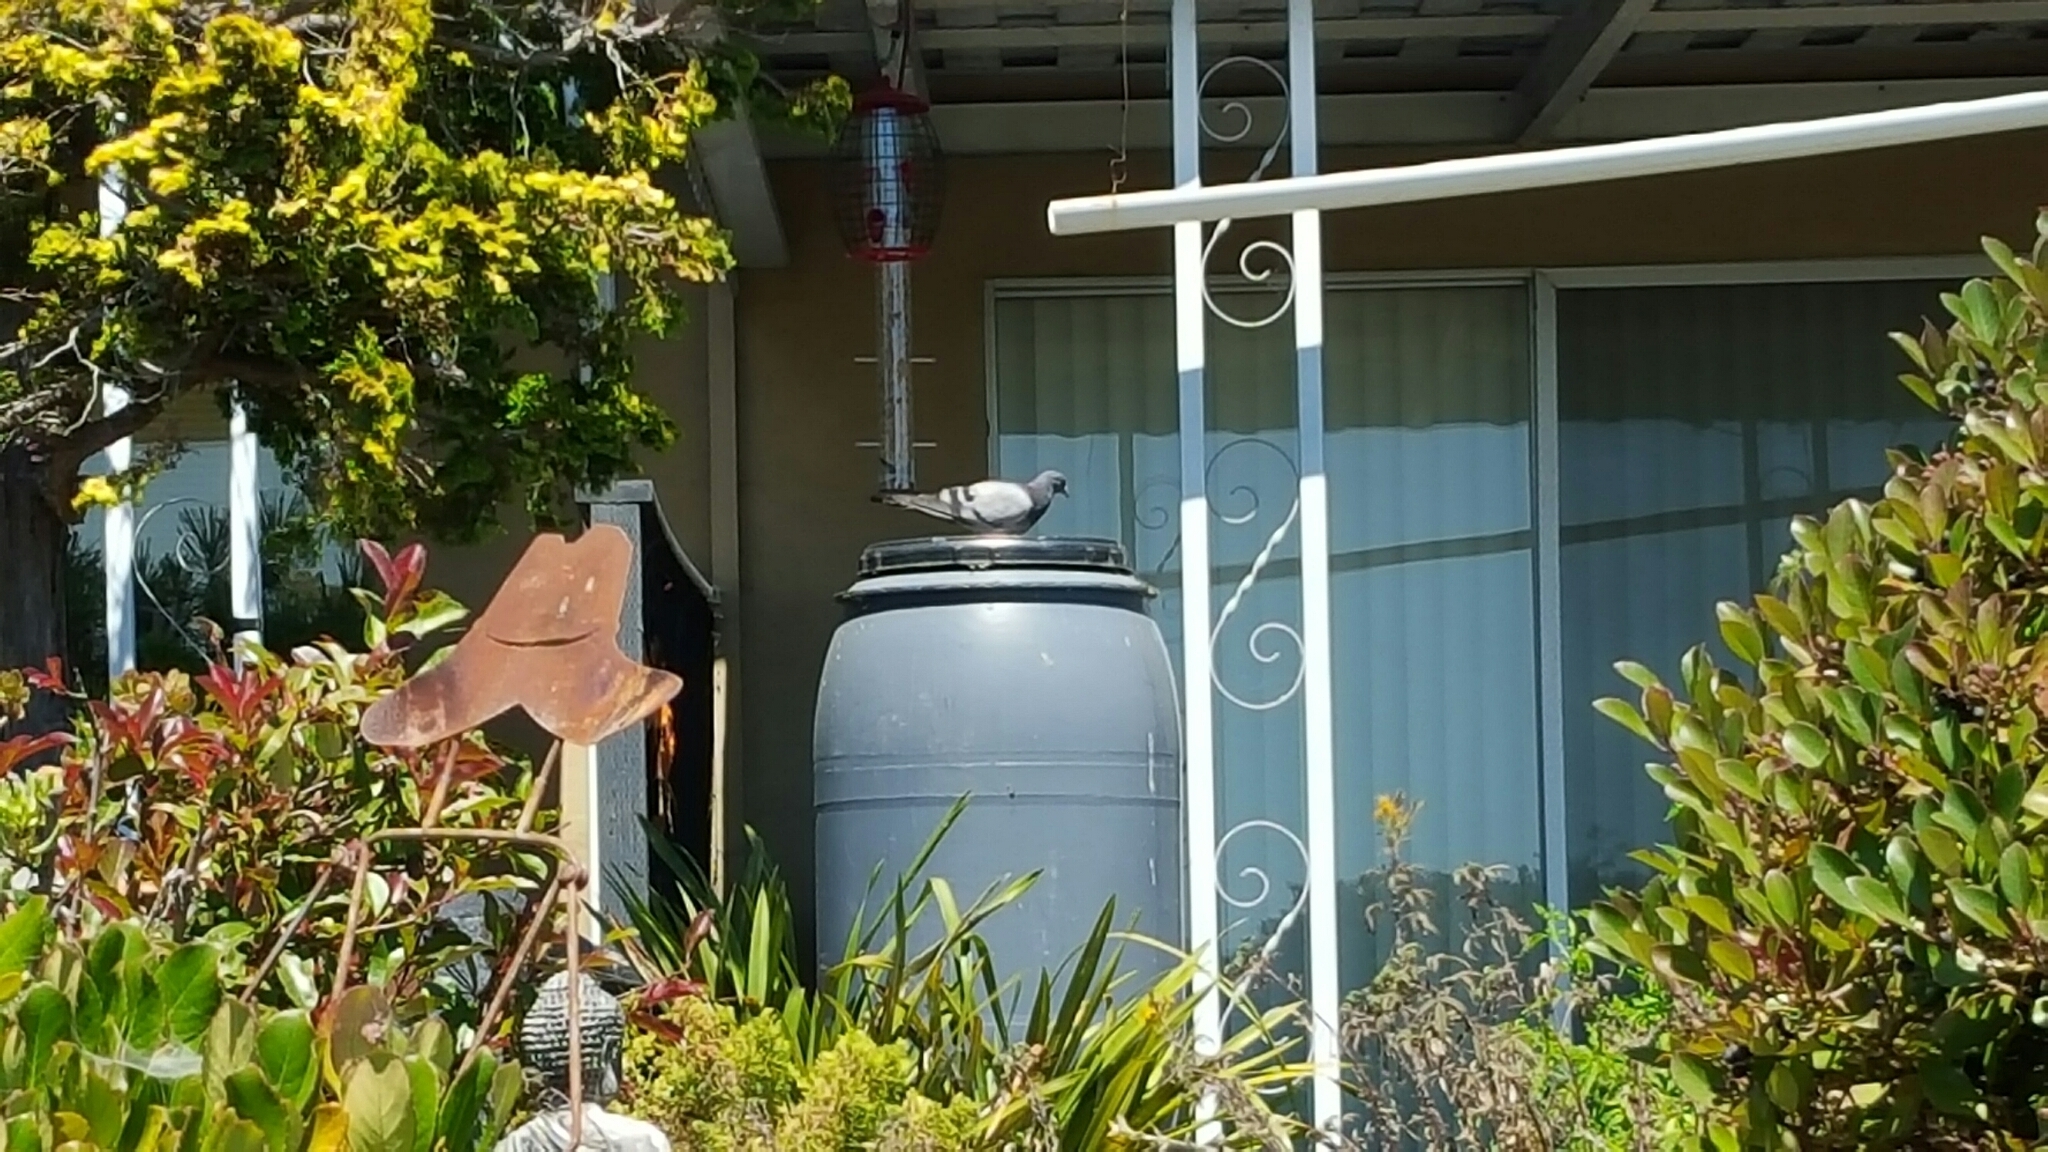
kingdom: Animalia
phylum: Chordata
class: Aves
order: Columbiformes
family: Columbidae
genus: Columba
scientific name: Columba livia
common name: Rock pigeon
